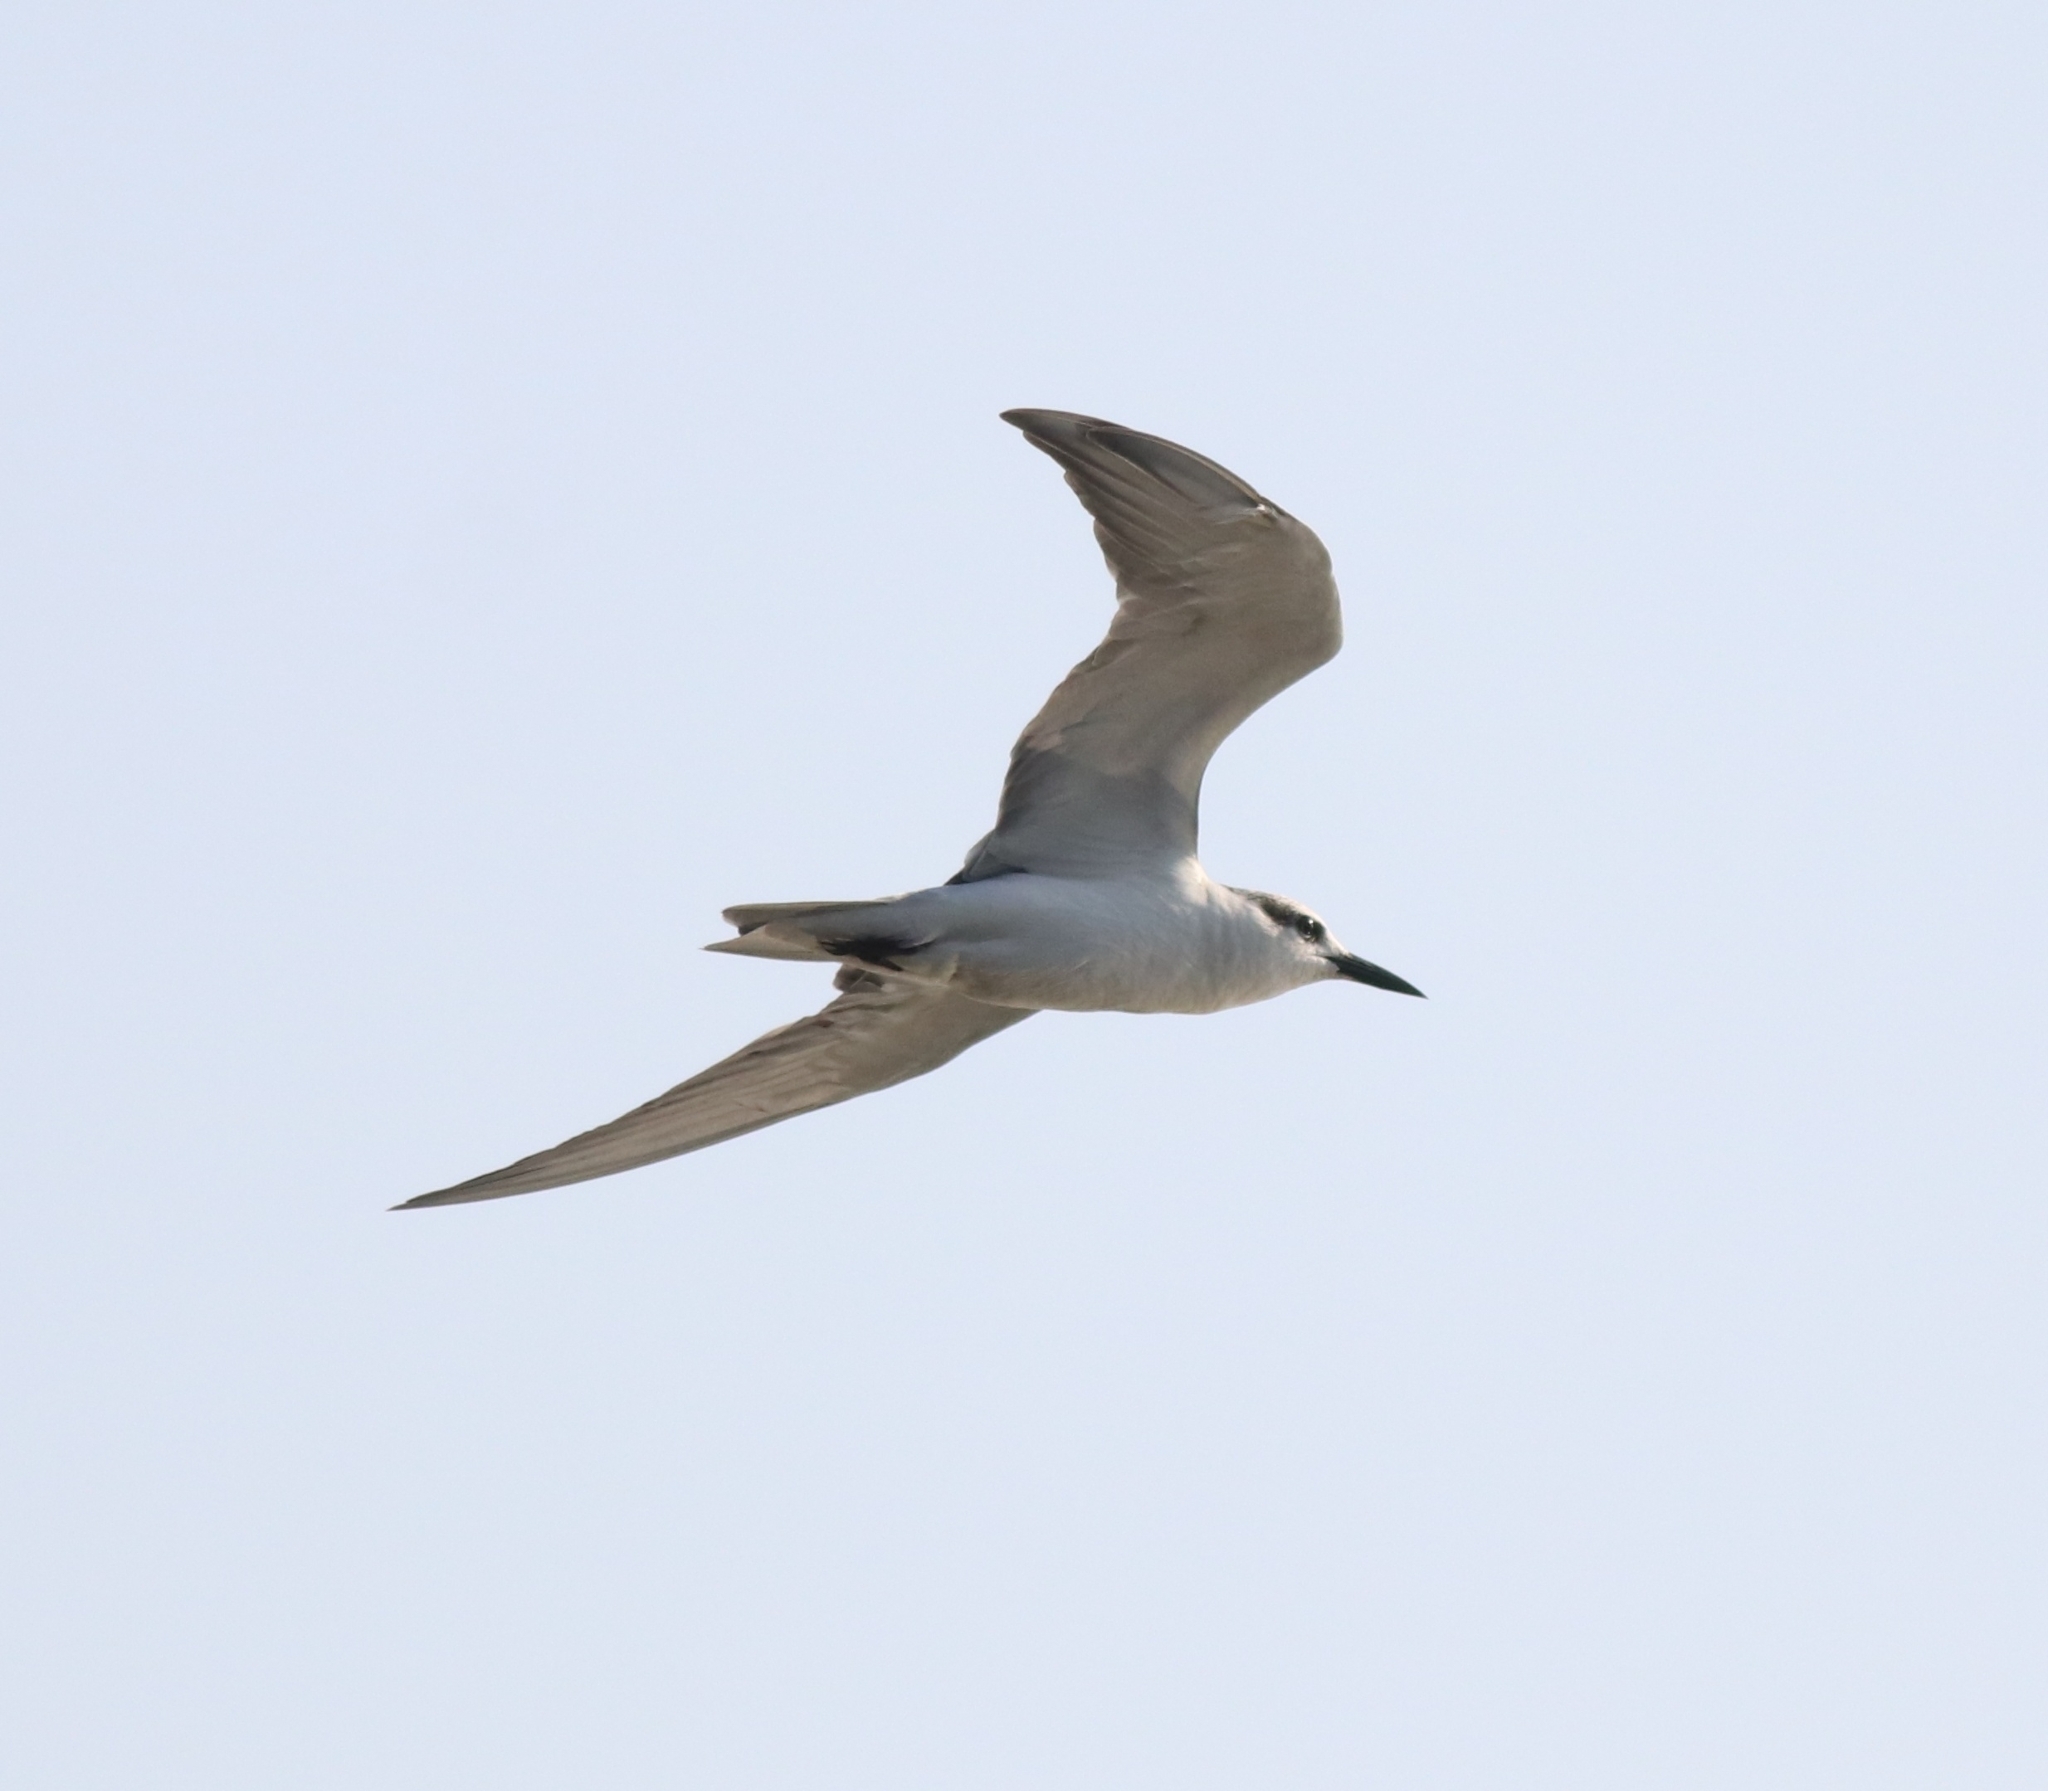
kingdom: Animalia
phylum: Chordata
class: Aves
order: Charadriiformes
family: Laridae
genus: Chlidonias
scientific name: Chlidonias hybrida
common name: Whiskered tern
